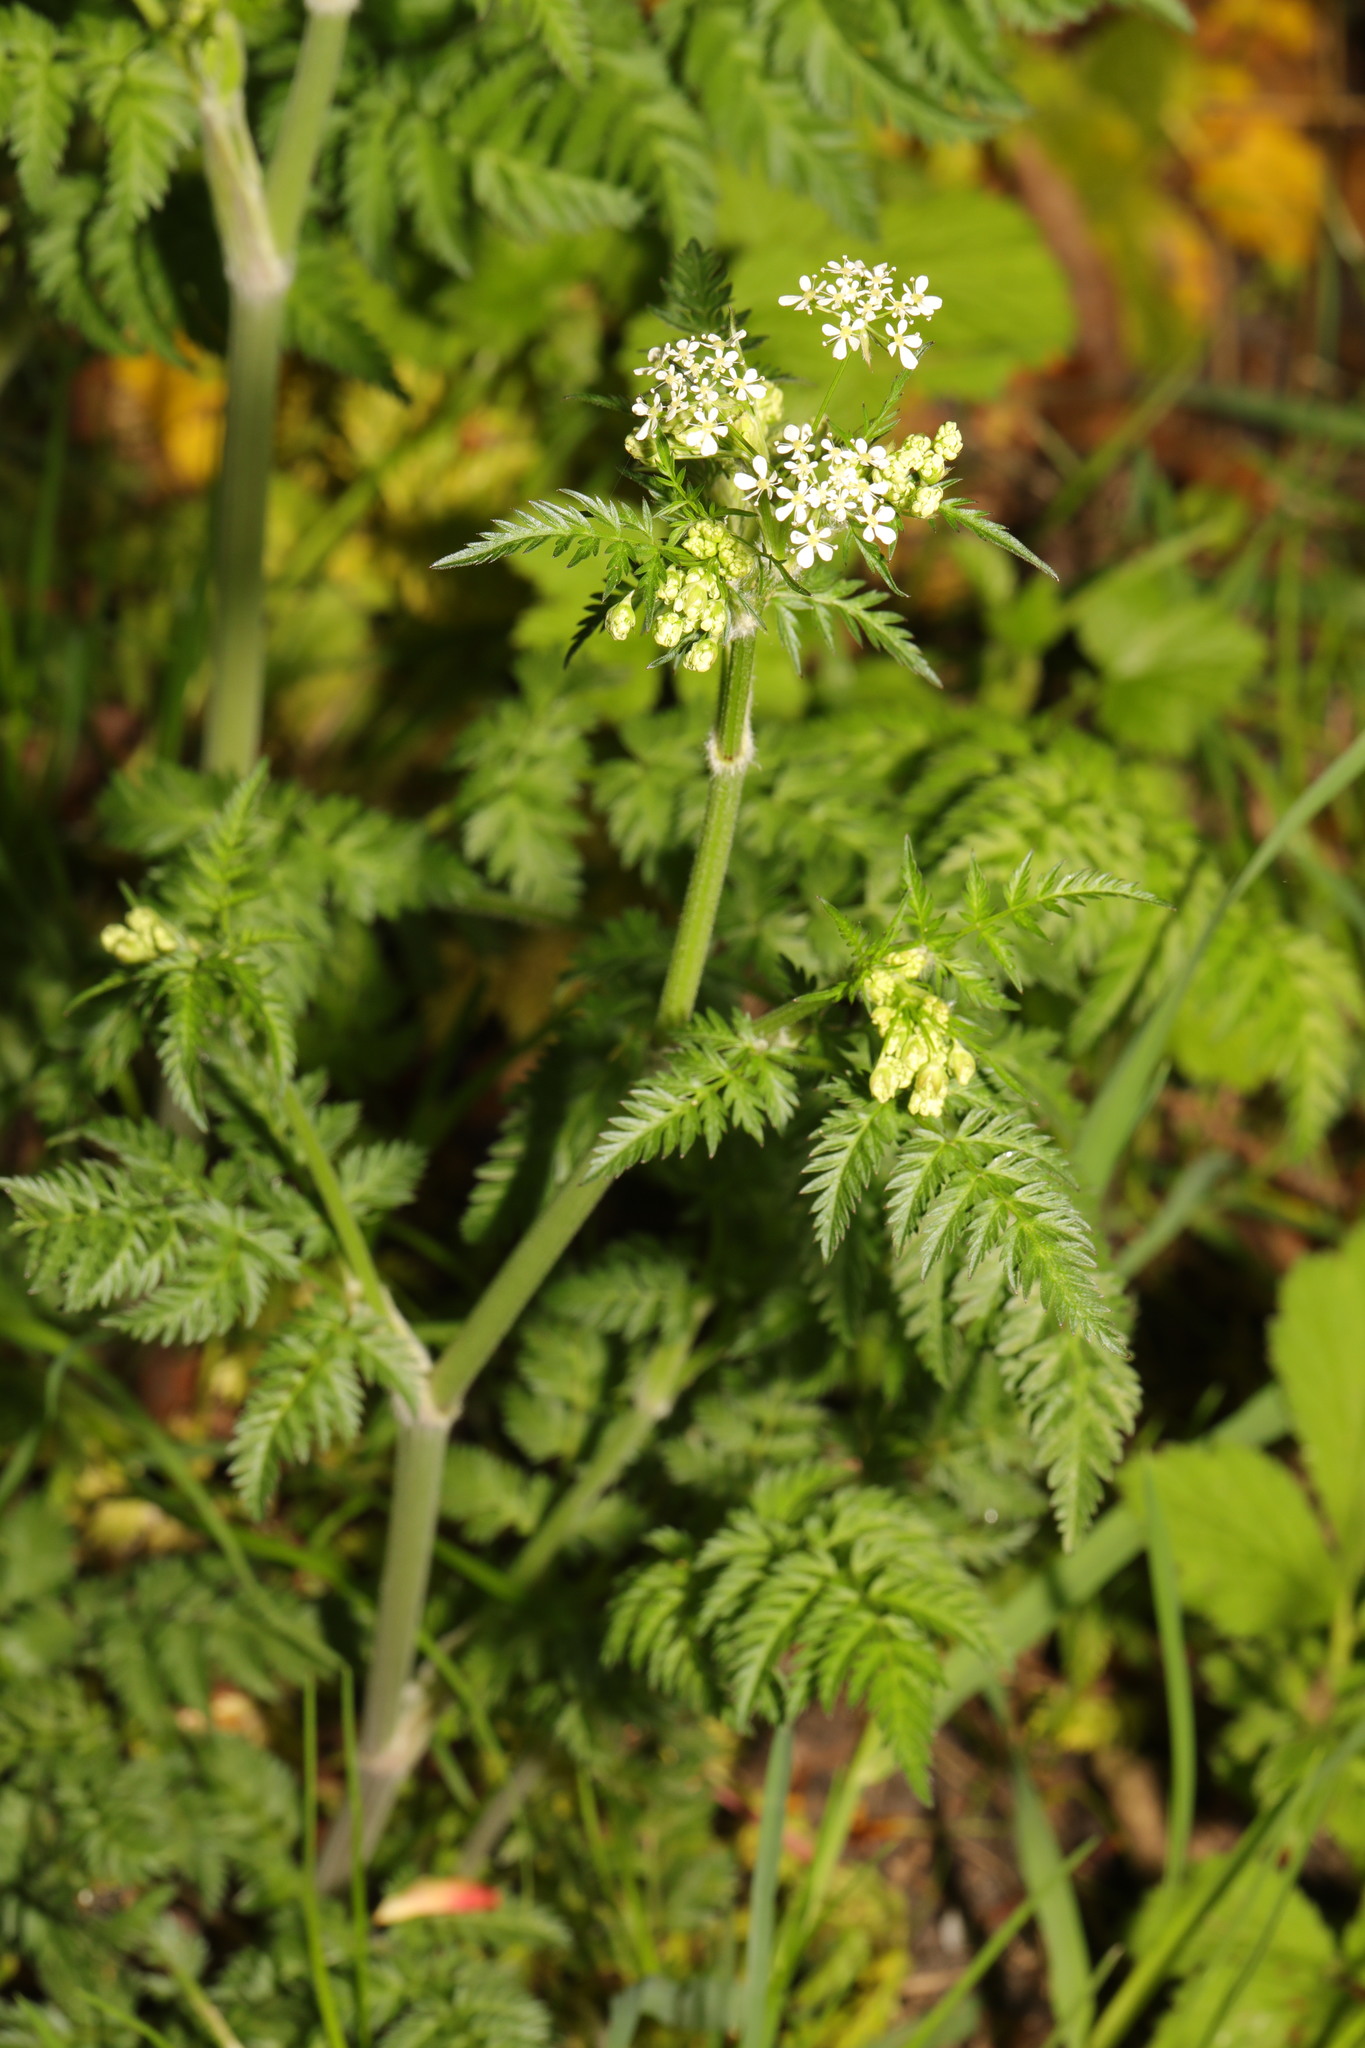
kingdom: Plantae
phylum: Tracheophyta
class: Magnoliopsida
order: Apiales
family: Apiaceae
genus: Anthriscus
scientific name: Anthriscus sylvestris
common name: Cow parsley
